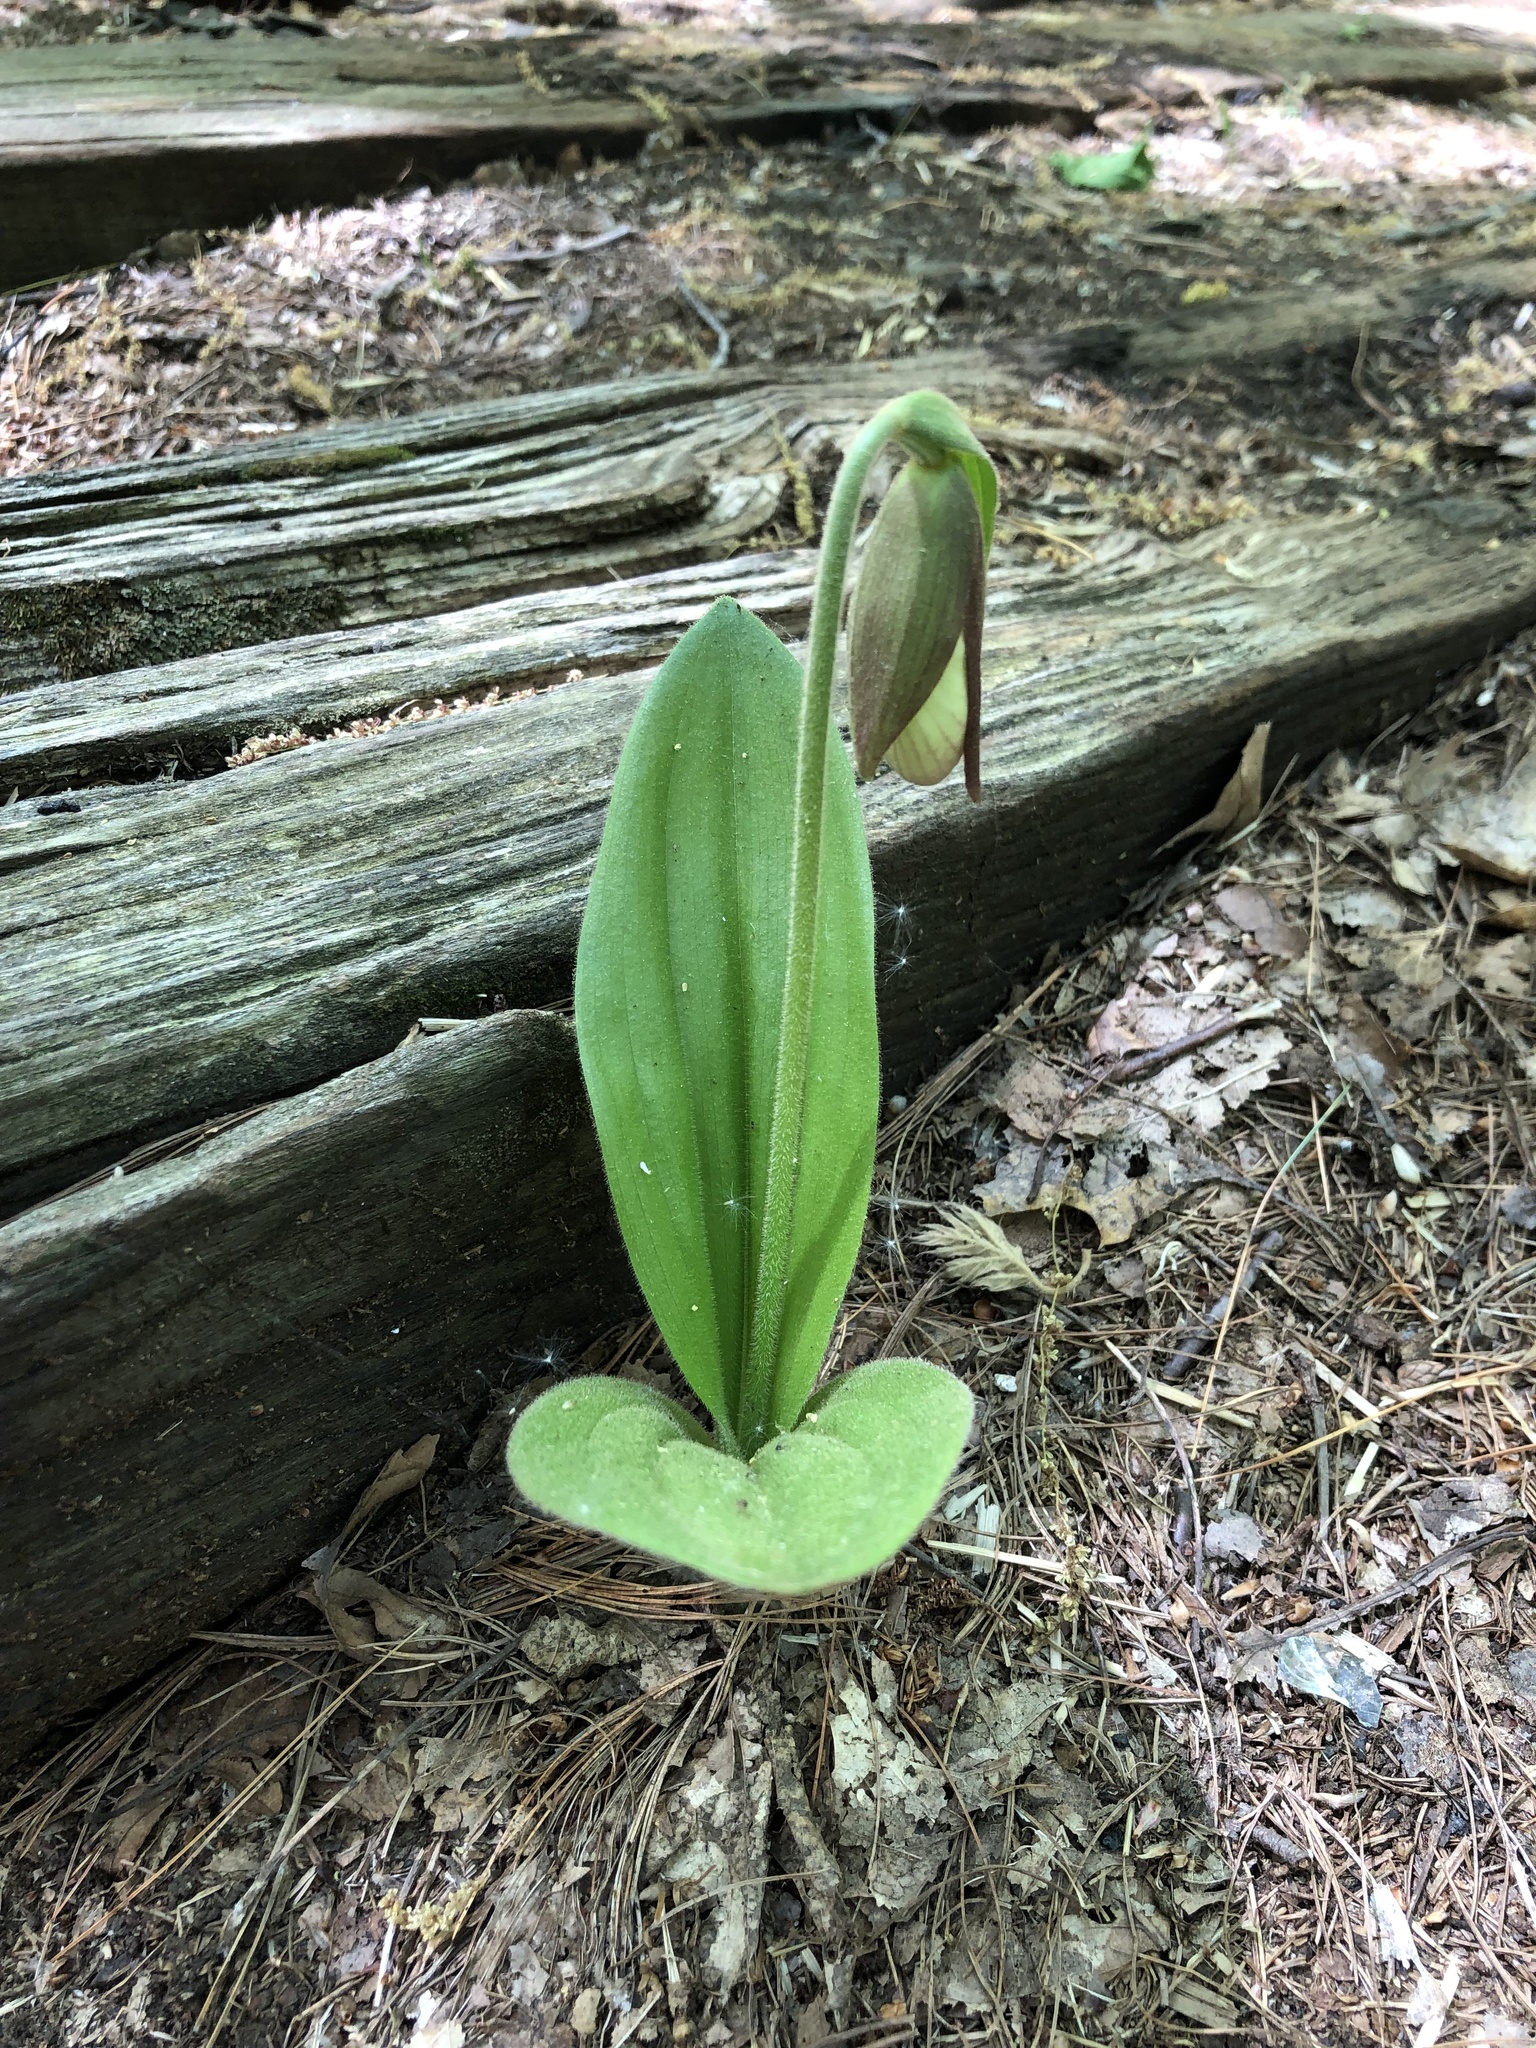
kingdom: Plantae
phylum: Tracheophyta
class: Liliopsida
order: Asparagales
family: Orchidaceae
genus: Cypripedium
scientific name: Cypripedium acaule
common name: Pink lady's-slipper
